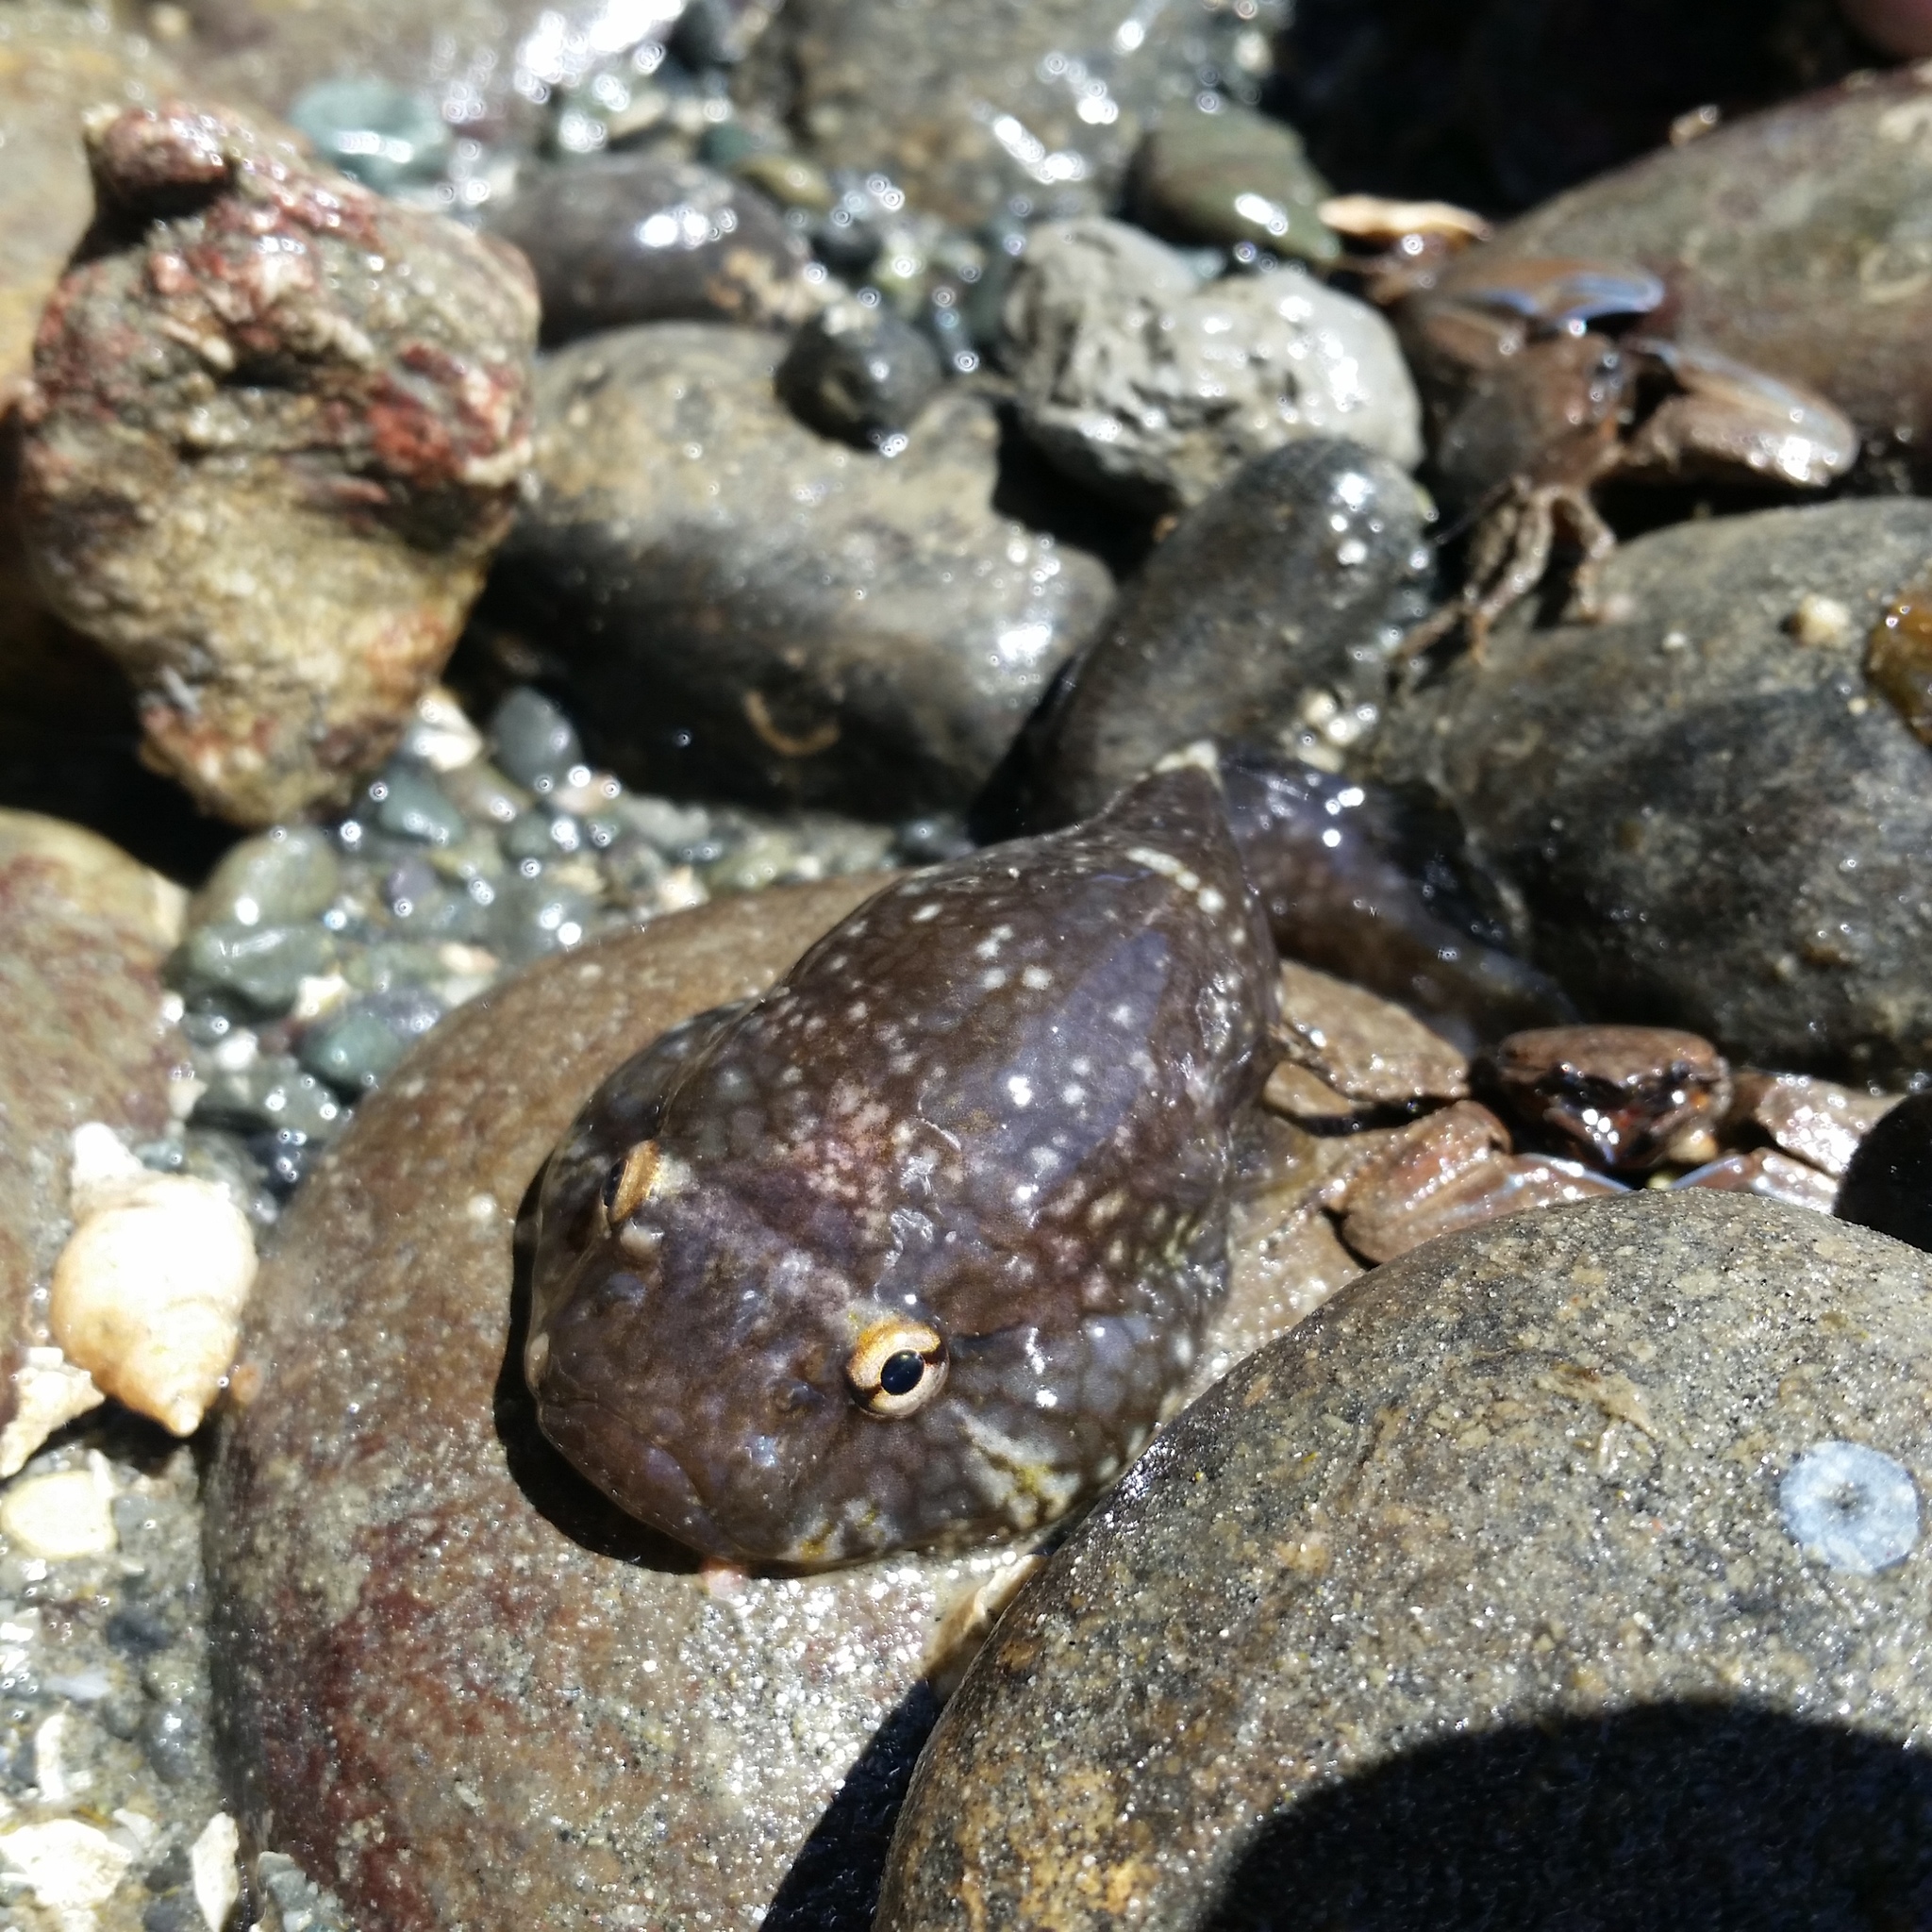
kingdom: Animalia
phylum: Chordata
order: Gobiesociformes
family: Gobiesocidae
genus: Gobiesox
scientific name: Gobiesox maeandricus
